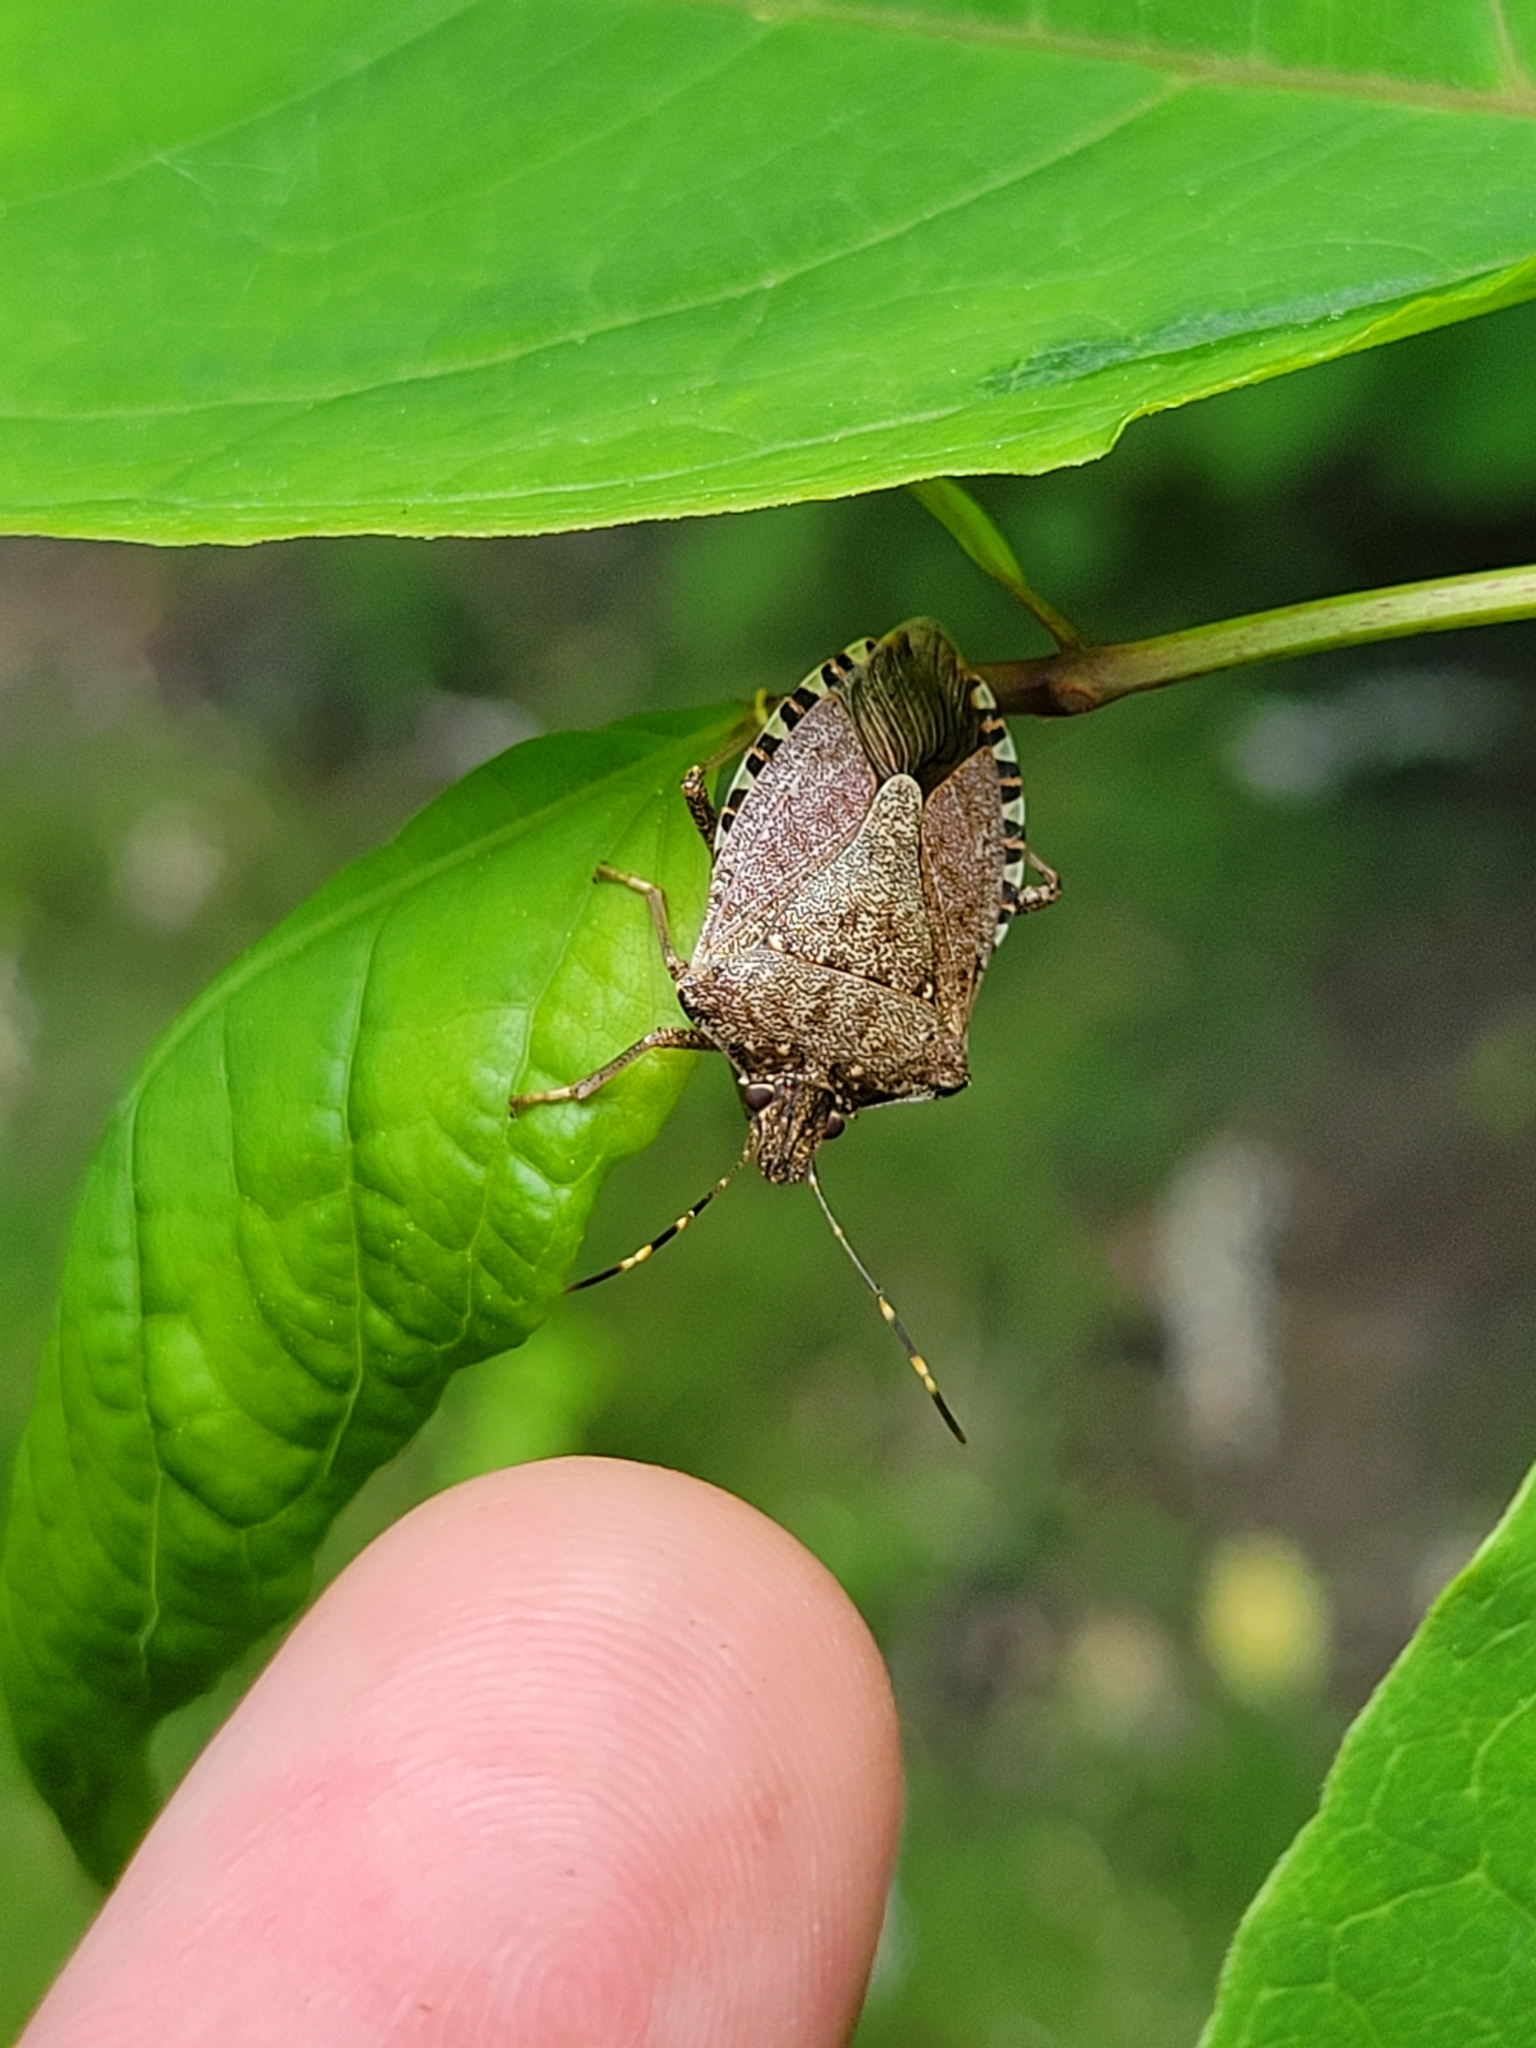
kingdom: Animalia
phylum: Arthropoda
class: Insecta
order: Hemiptera
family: Pentatomidae
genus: Halyomorpha
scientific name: Halyomorpha halys
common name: Brown marmorated stink bug
